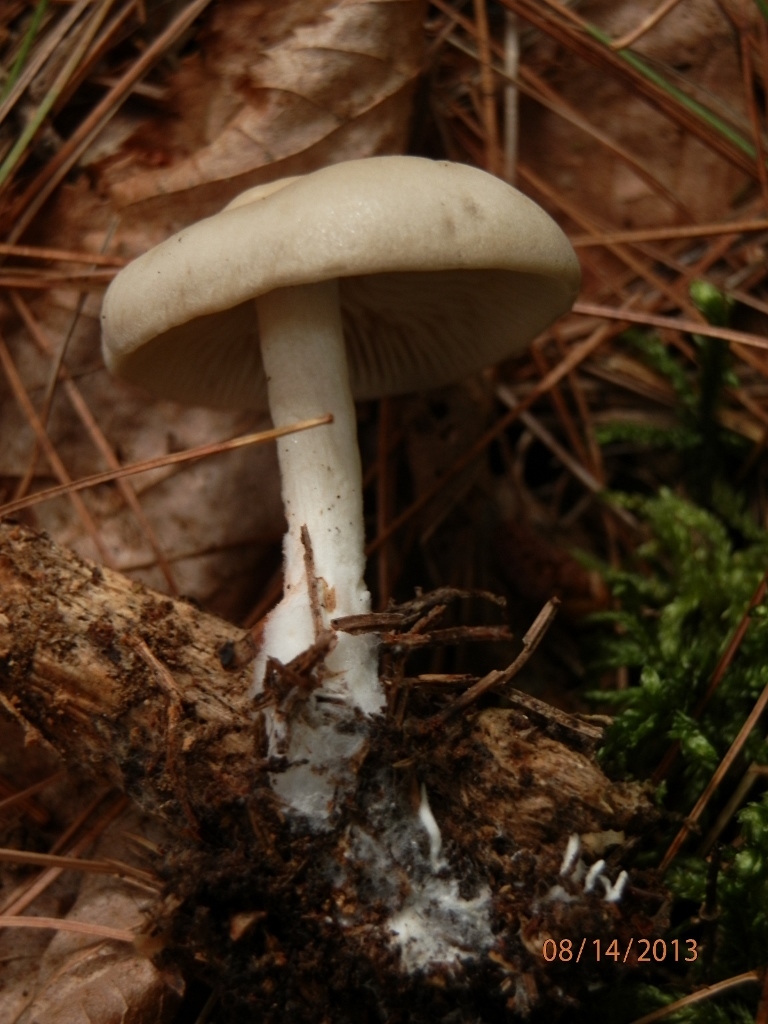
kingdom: Fungi
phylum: Basidiomycota
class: Agaricomycetes
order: Agaricales
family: Entolomataceae
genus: Entoloma
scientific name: Entoloma abortivum
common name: Aborted entoloma
